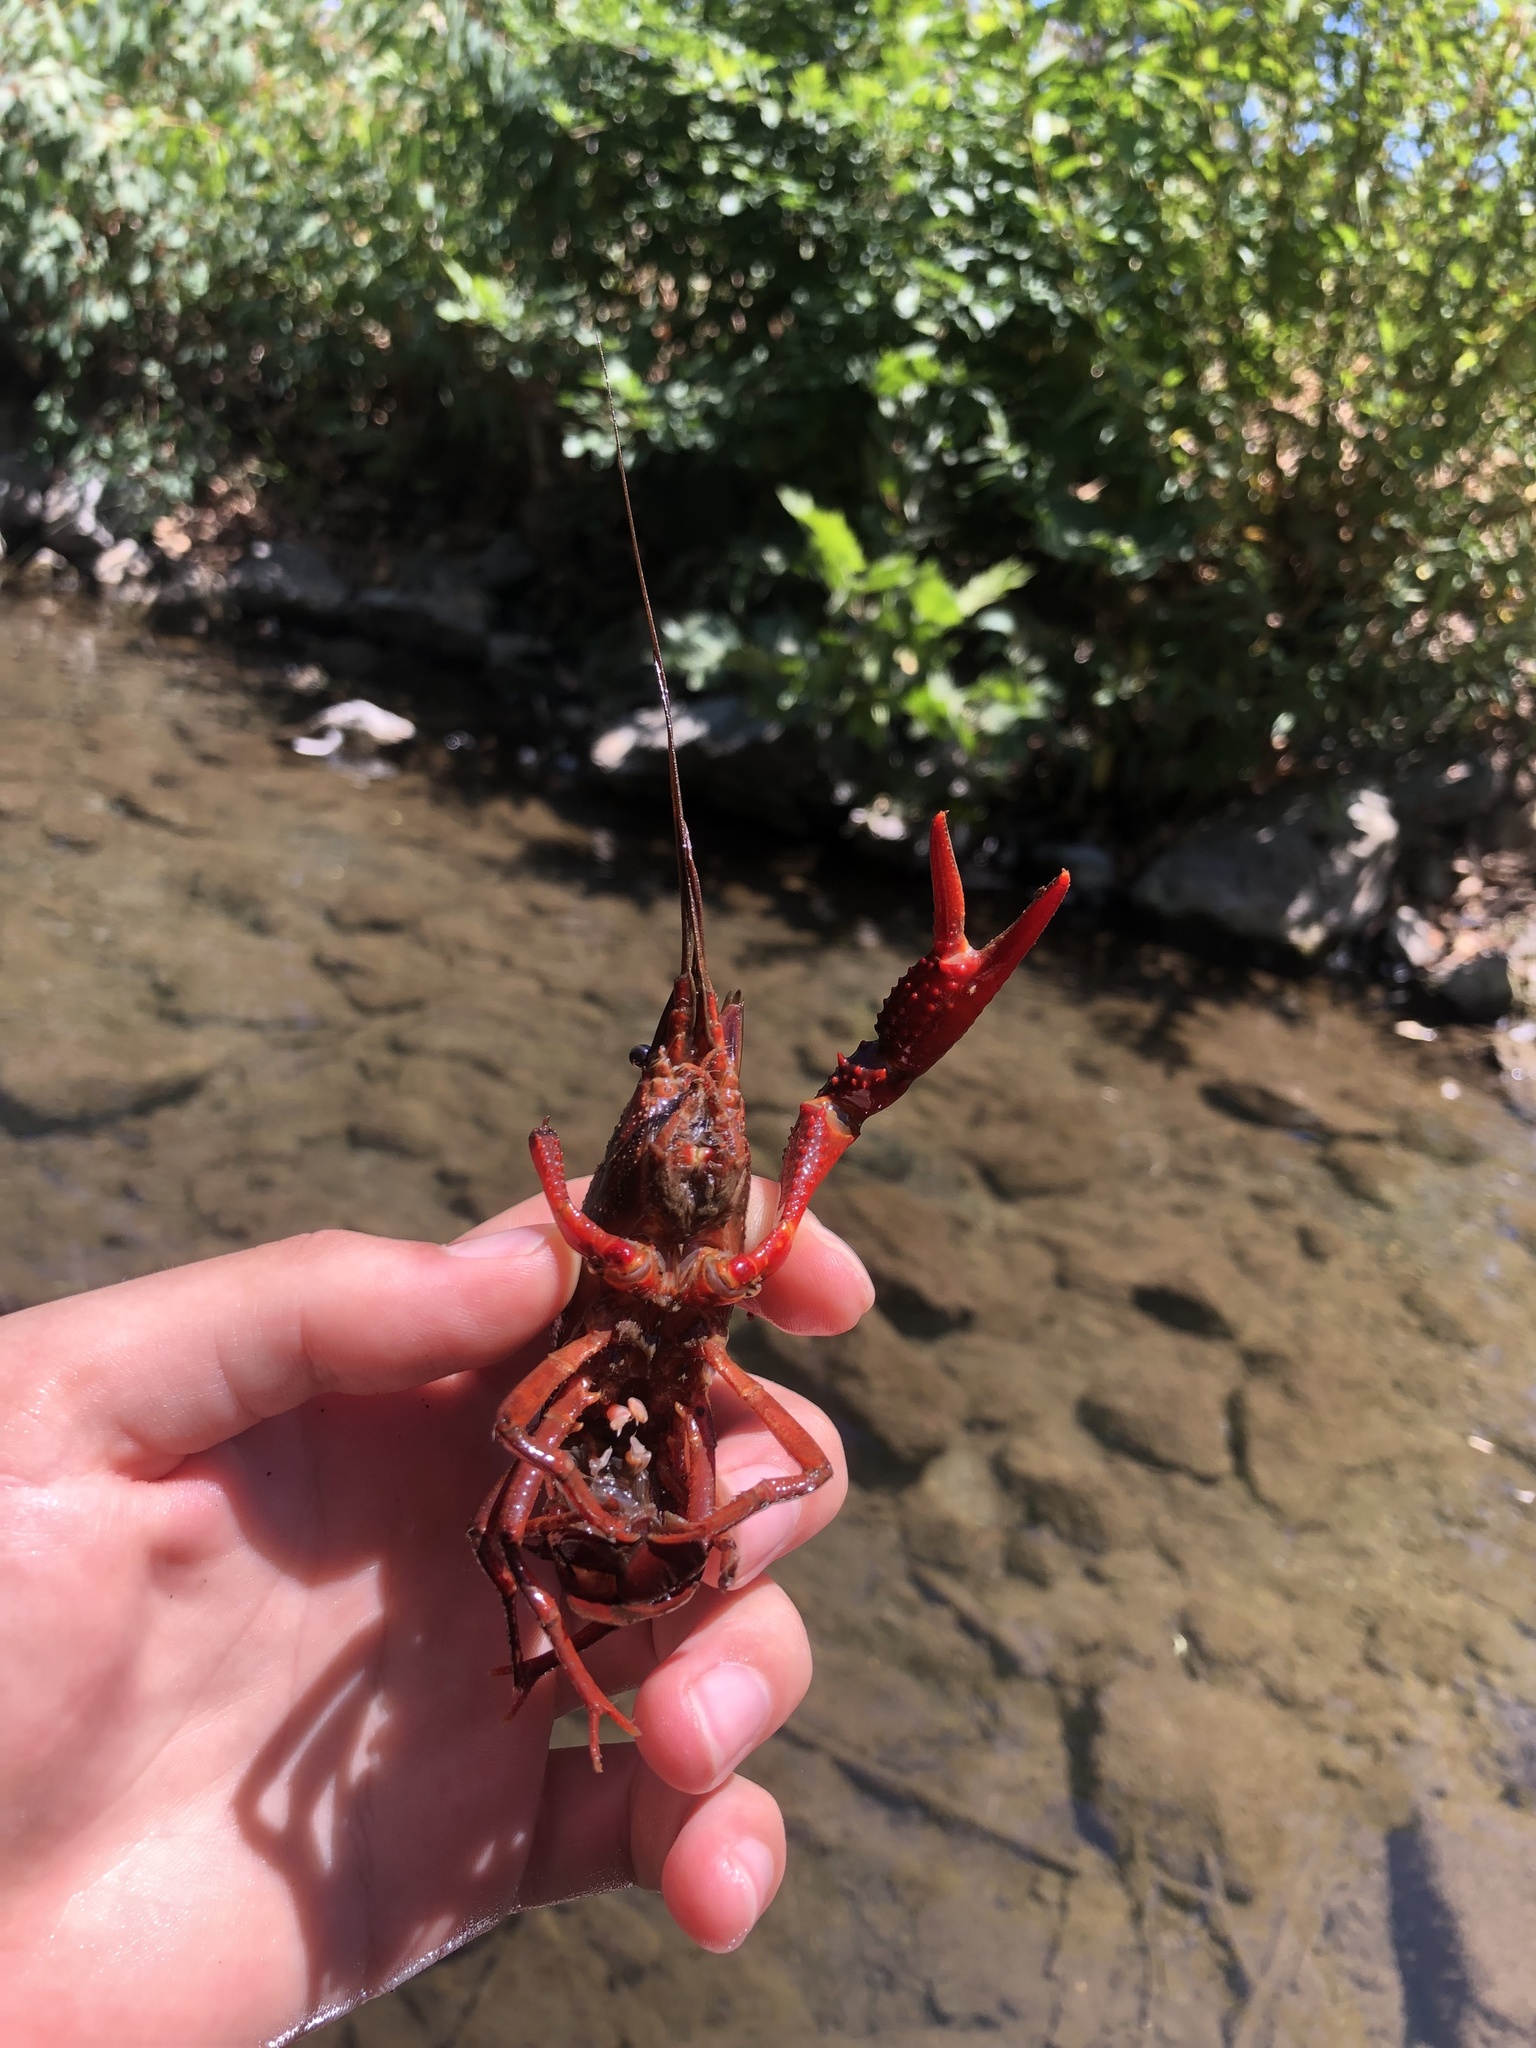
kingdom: Animalia
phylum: Arthropoda
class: Malacostraca
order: Decapoda
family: Cambaridae
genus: Procambarus
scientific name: Procambarus clarkii
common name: Red swamp crayfish
